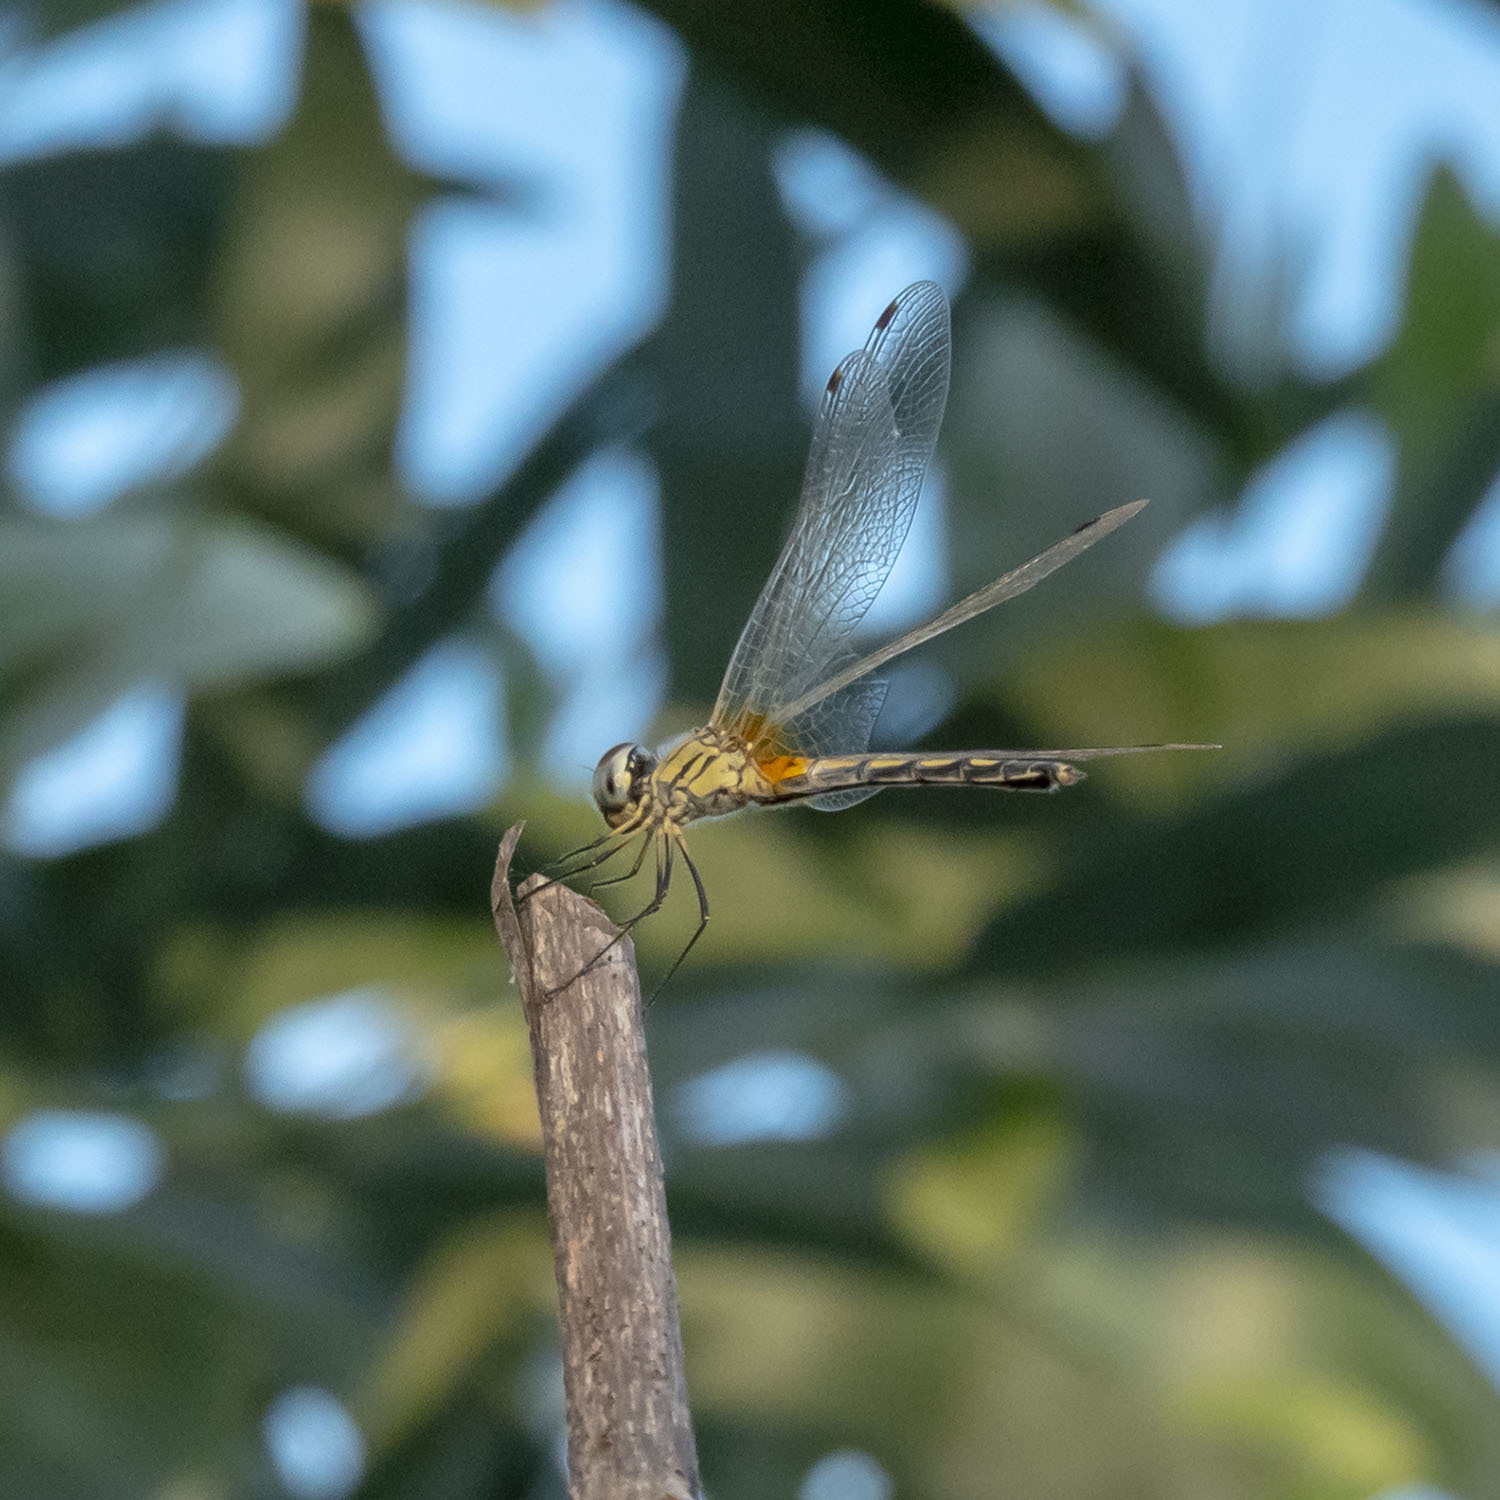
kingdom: Animalia
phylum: Arthropoda
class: Insecta
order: Odonata
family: Libellulidae
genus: Trithemis
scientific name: Trithemis pallidinervis
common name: Dancing dropwing
